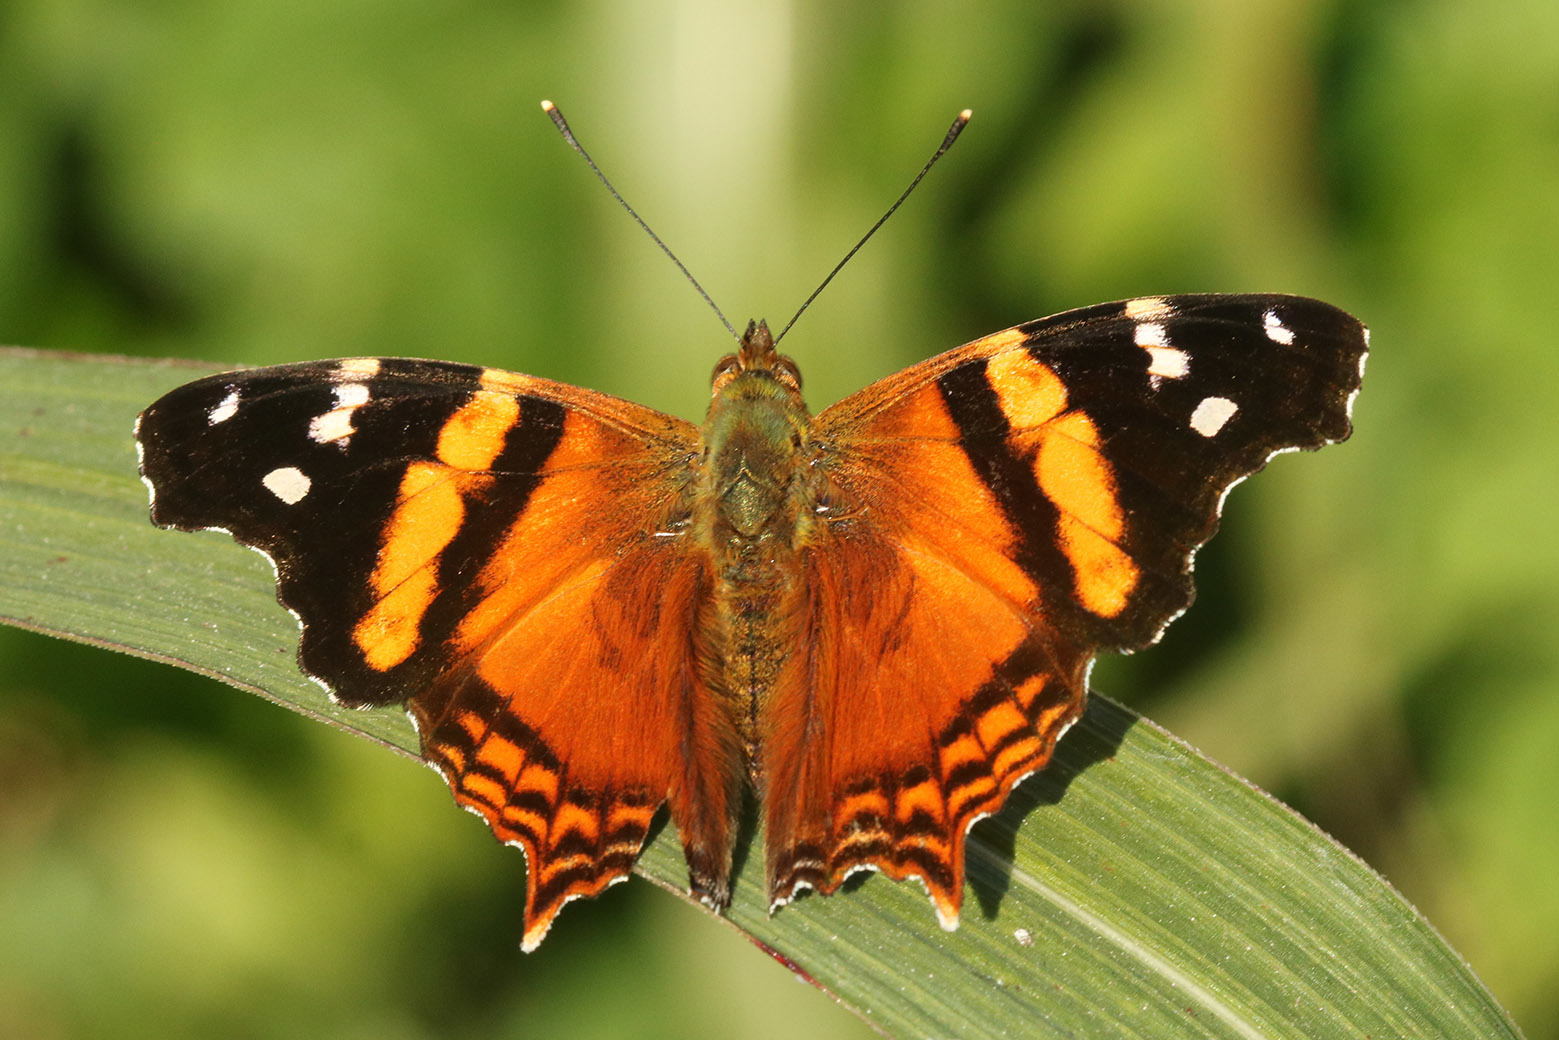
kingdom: Animalia
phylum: Arthropoda
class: Insecta
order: Lepidoptera
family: Nymphalidae
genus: Hypanartia
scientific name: Hypanartia bella
